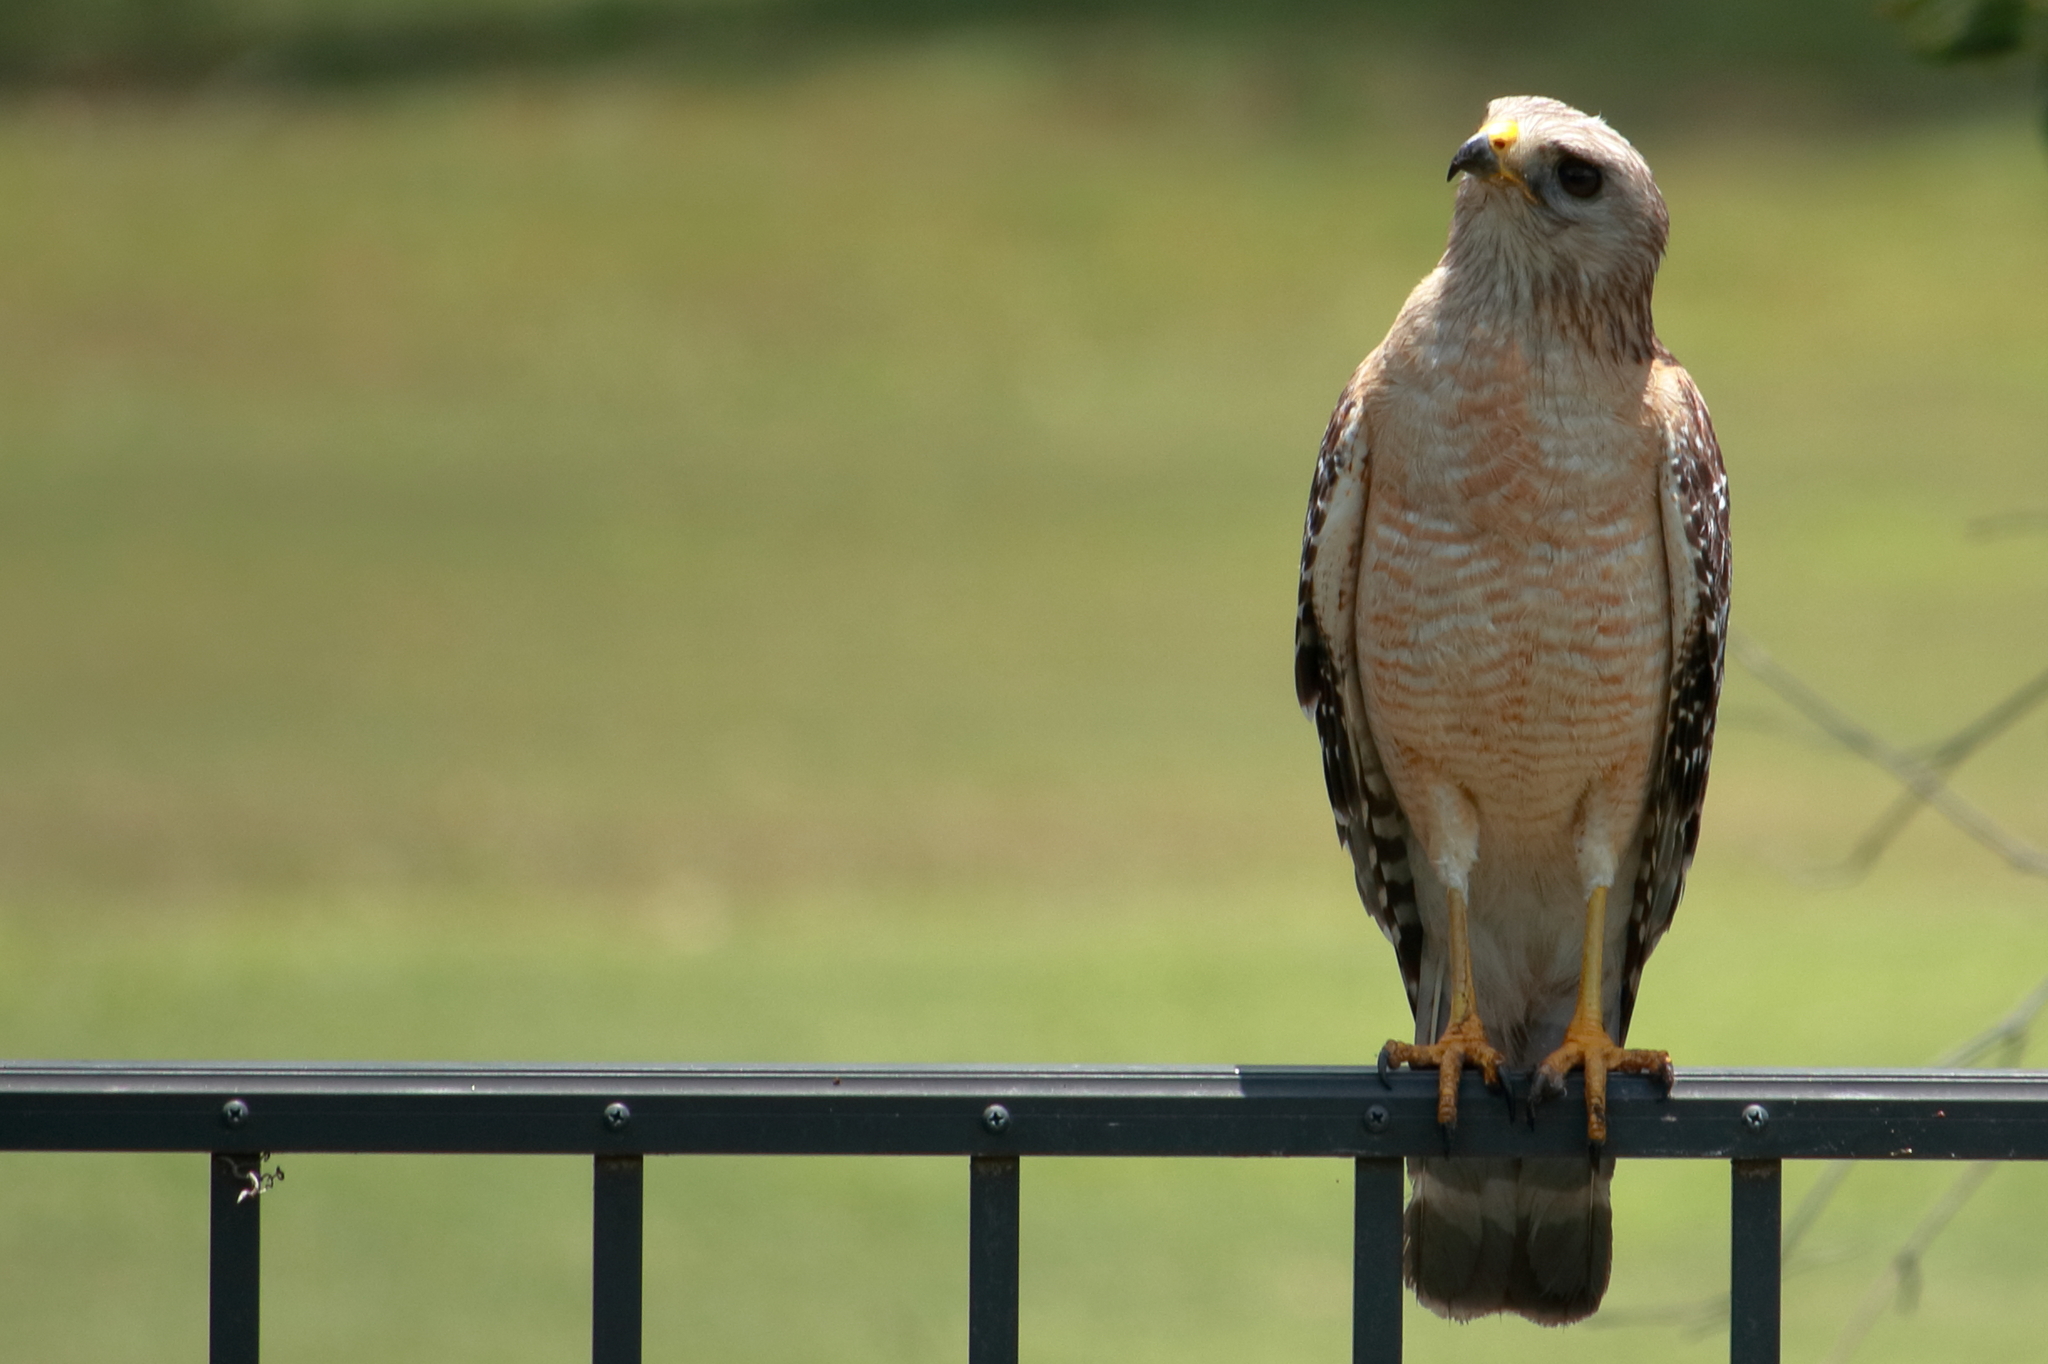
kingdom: Animalia
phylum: Chordata
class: Aves
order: Accipitriformes
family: Accipitridae
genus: Buteo
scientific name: Buteo lineatus
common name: Red-shouldered hawk
